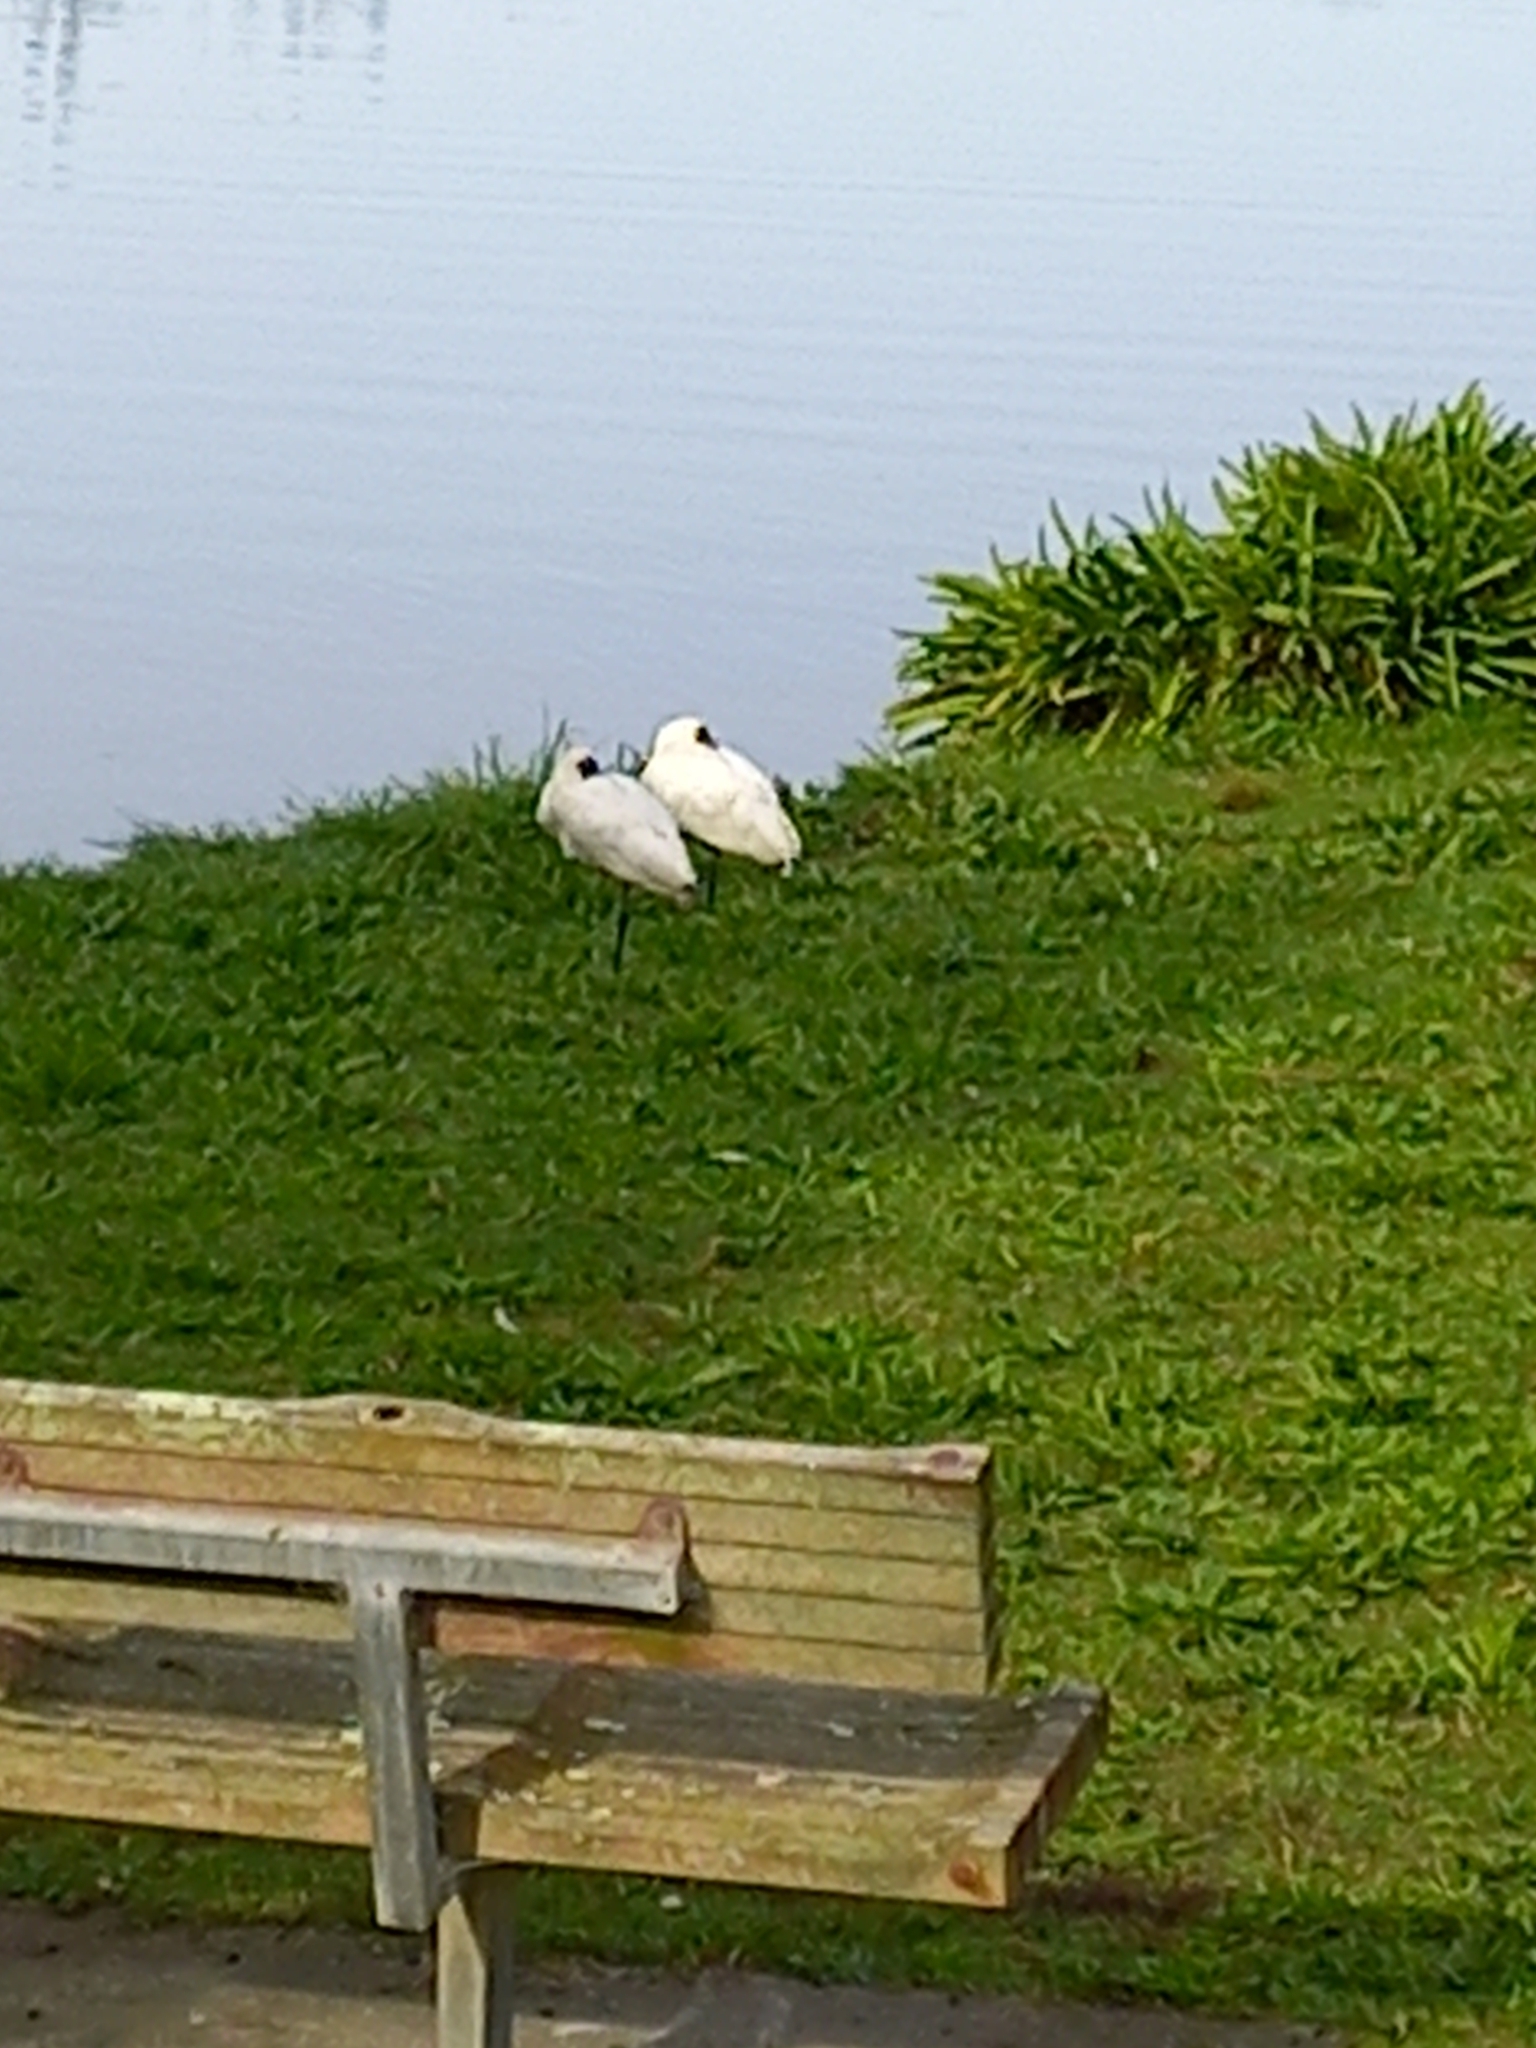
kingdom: Animalia
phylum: Chordata
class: Aves
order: Pelecaniformes
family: Threskiornithidae
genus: Platalea
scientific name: Platalea regia
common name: Royal spoonbill
